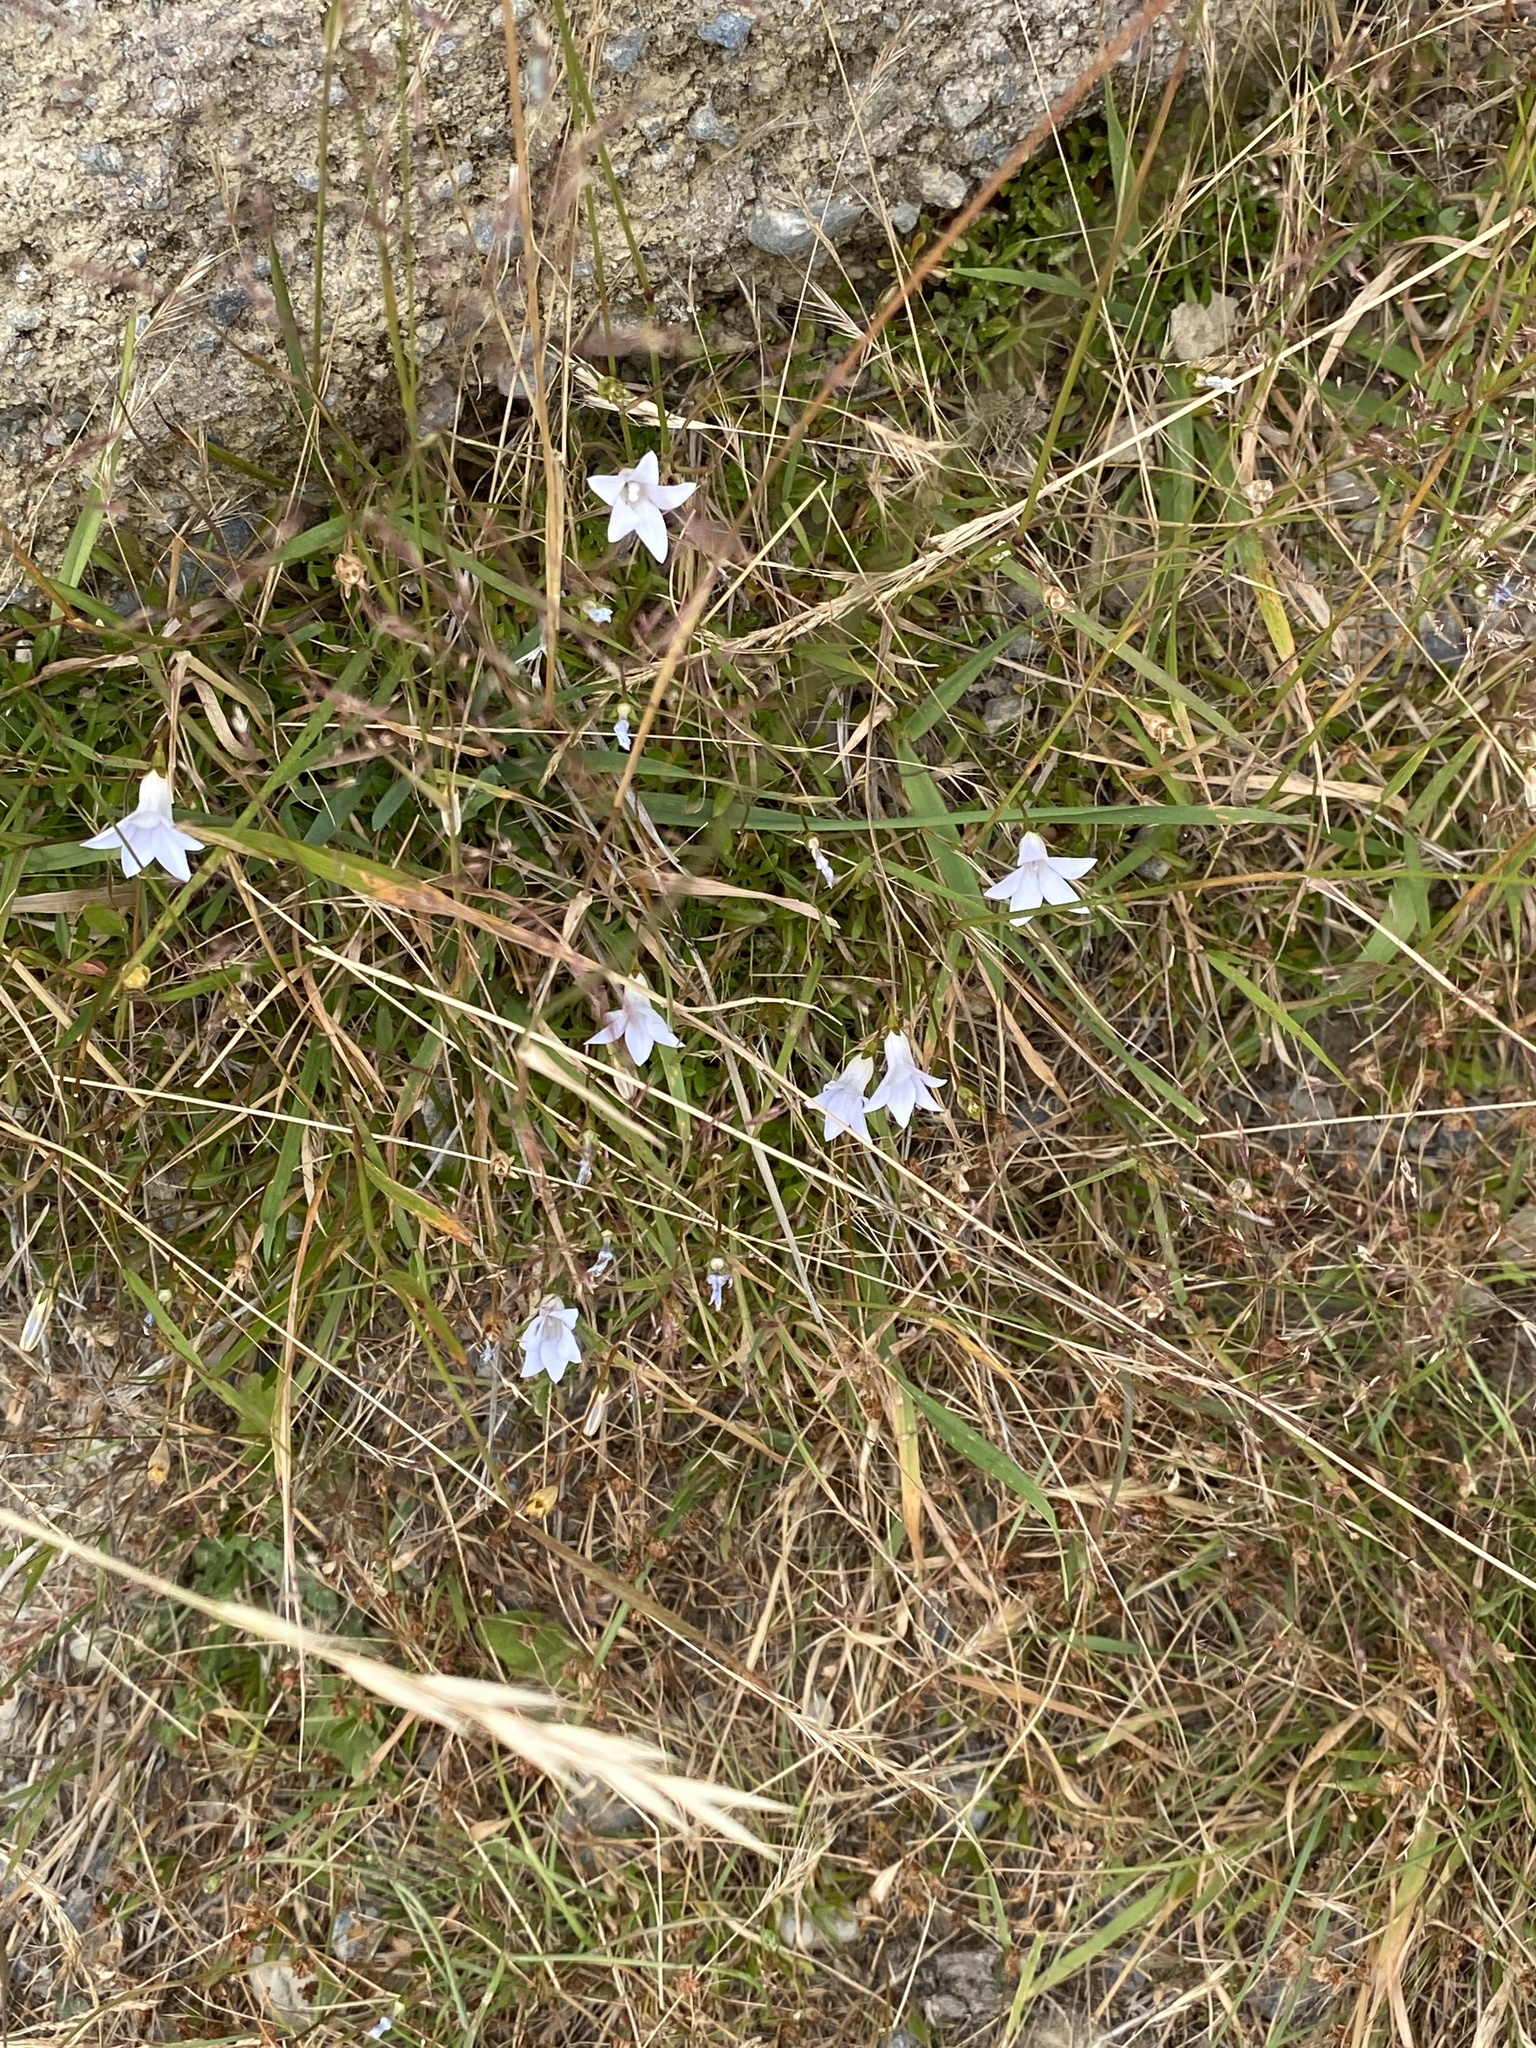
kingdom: Plantae
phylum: Tracheophyta
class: Magnoliopsida
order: Asterales
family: Campanulaceae
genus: Wahlenbergia
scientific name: Wahlenbergia albomarginata
